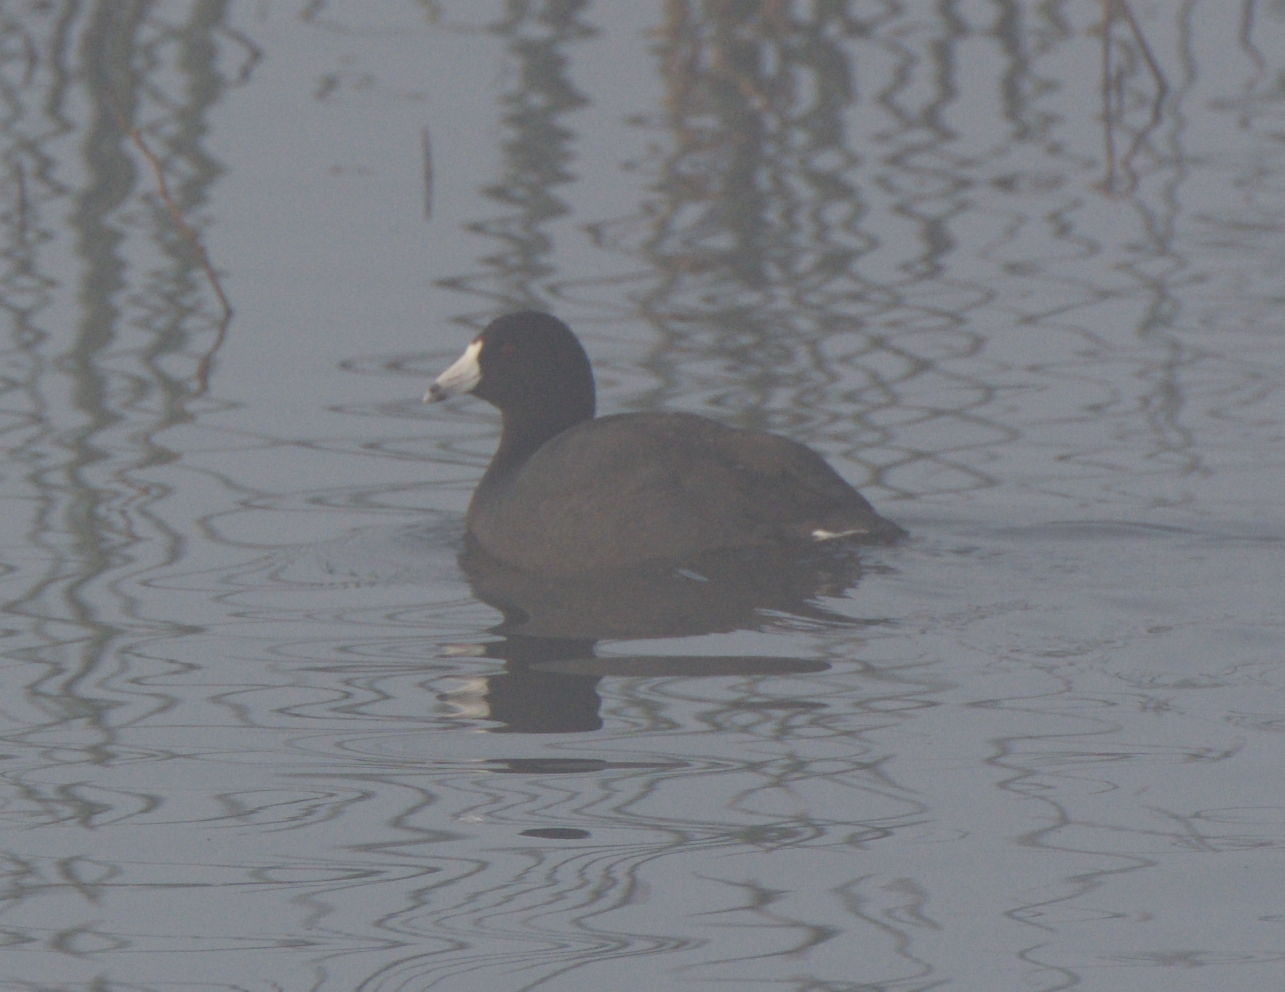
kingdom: Animalia
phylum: Chordata
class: Aves
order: Gruiformes
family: Rallidae
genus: Fulica
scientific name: Fulica americana
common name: American coot
